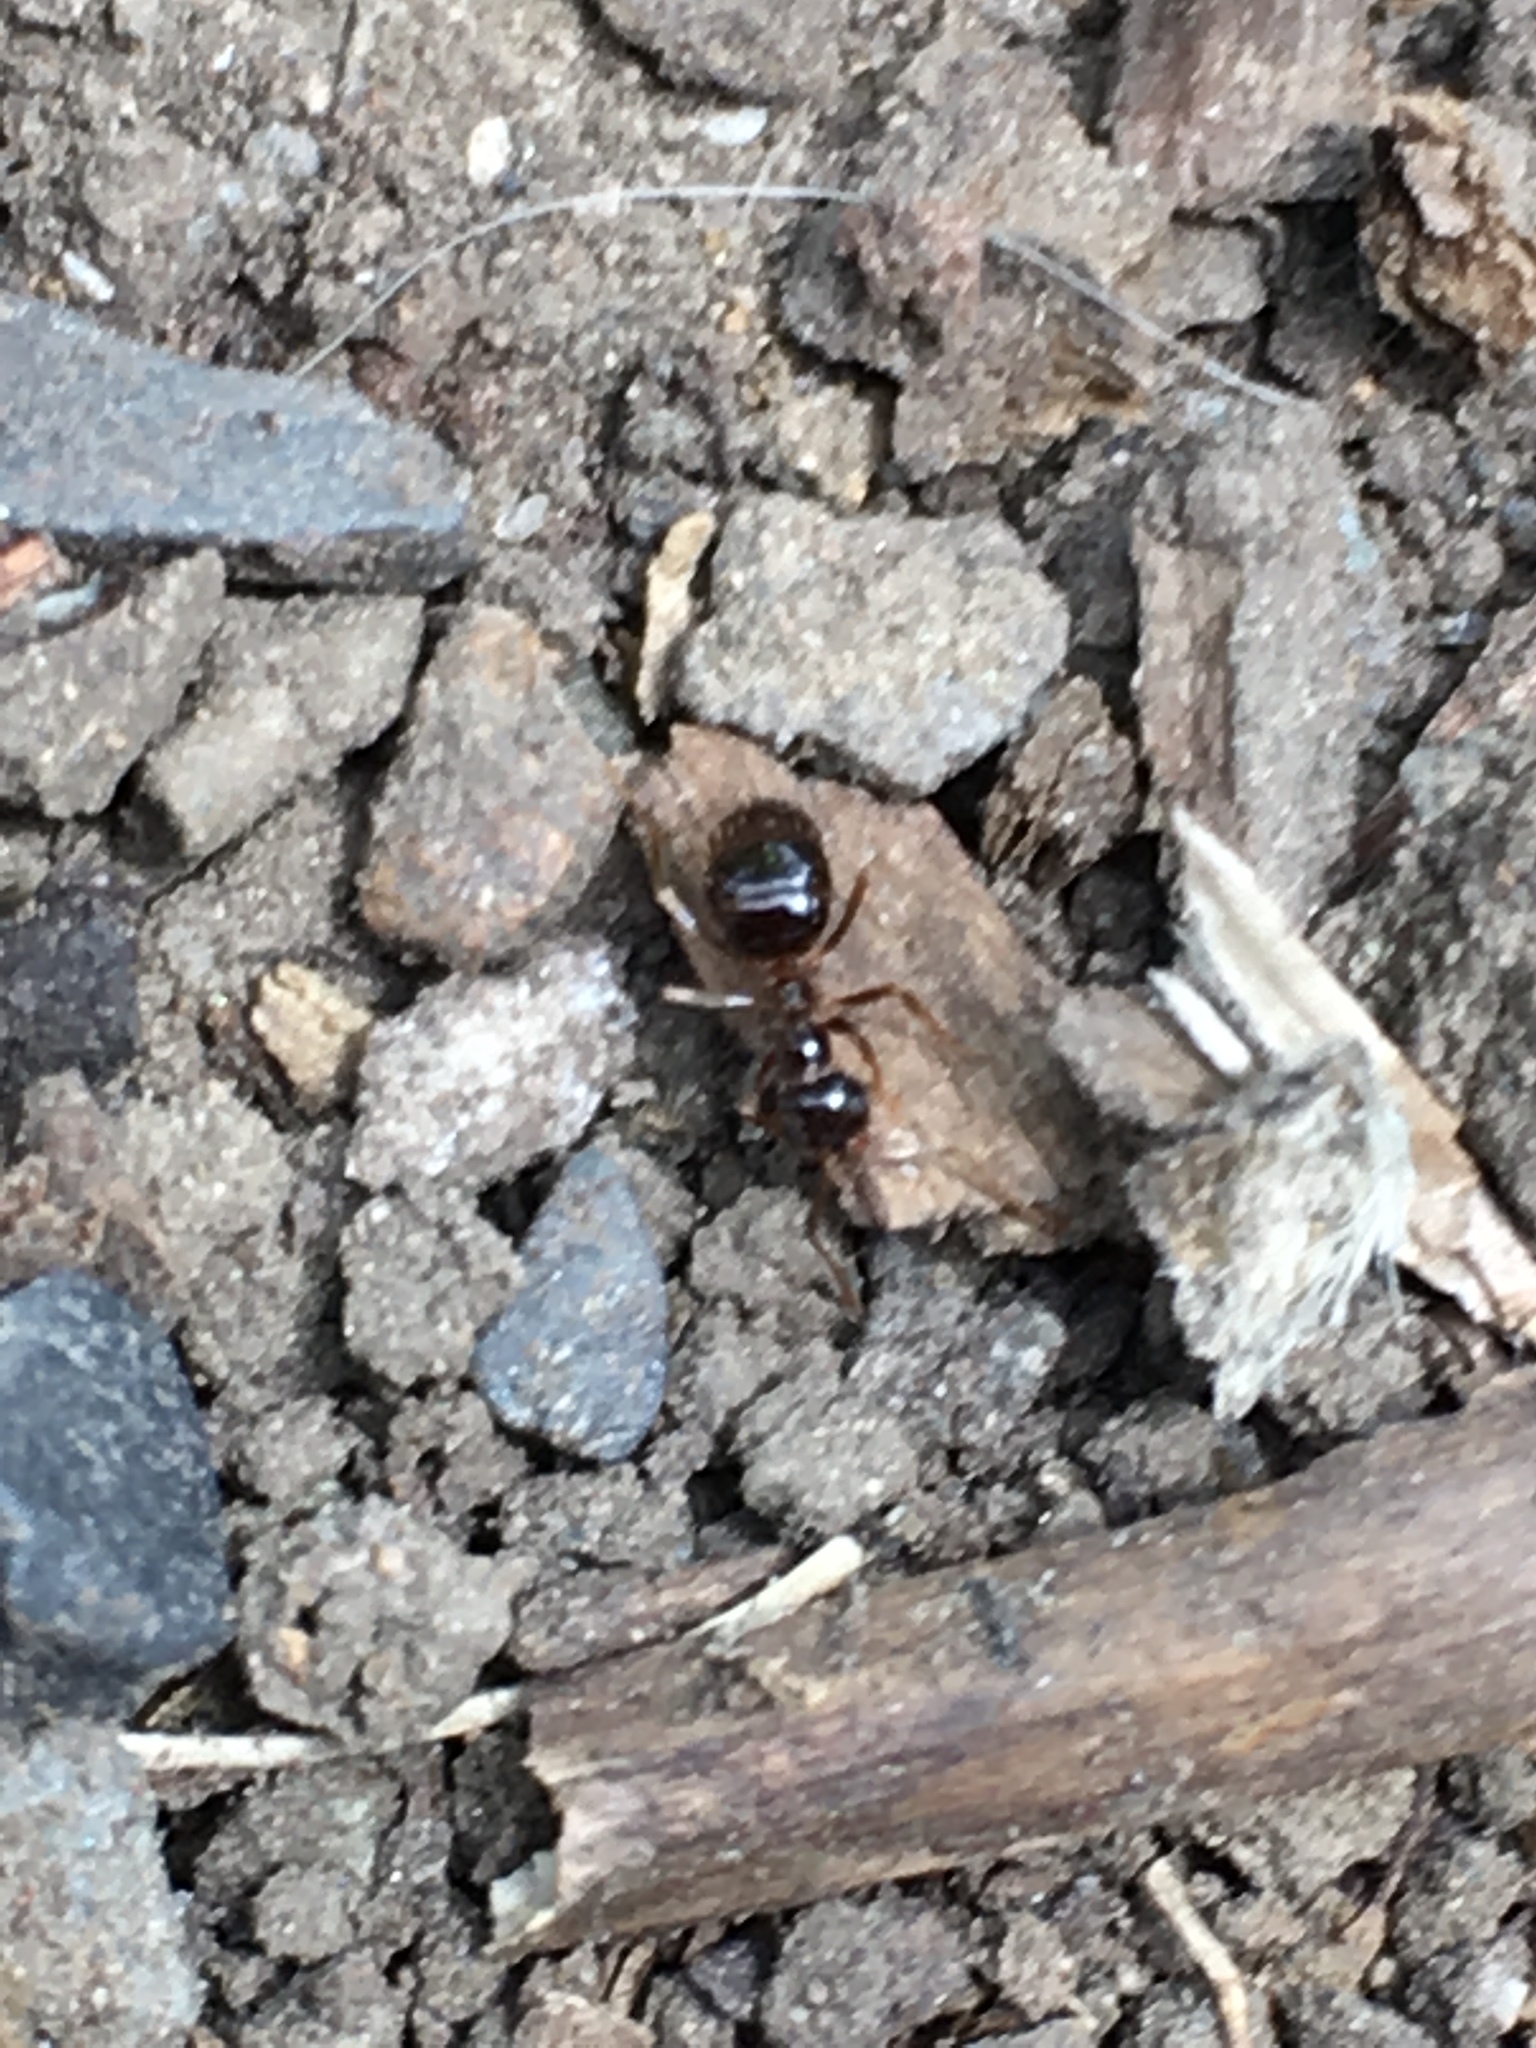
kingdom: Animalia
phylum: Arthropoda
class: Insecta
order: Hymenoptera
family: Formicidae
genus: Prenolepis
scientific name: Prenolepis imparis
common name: Small honey ant
